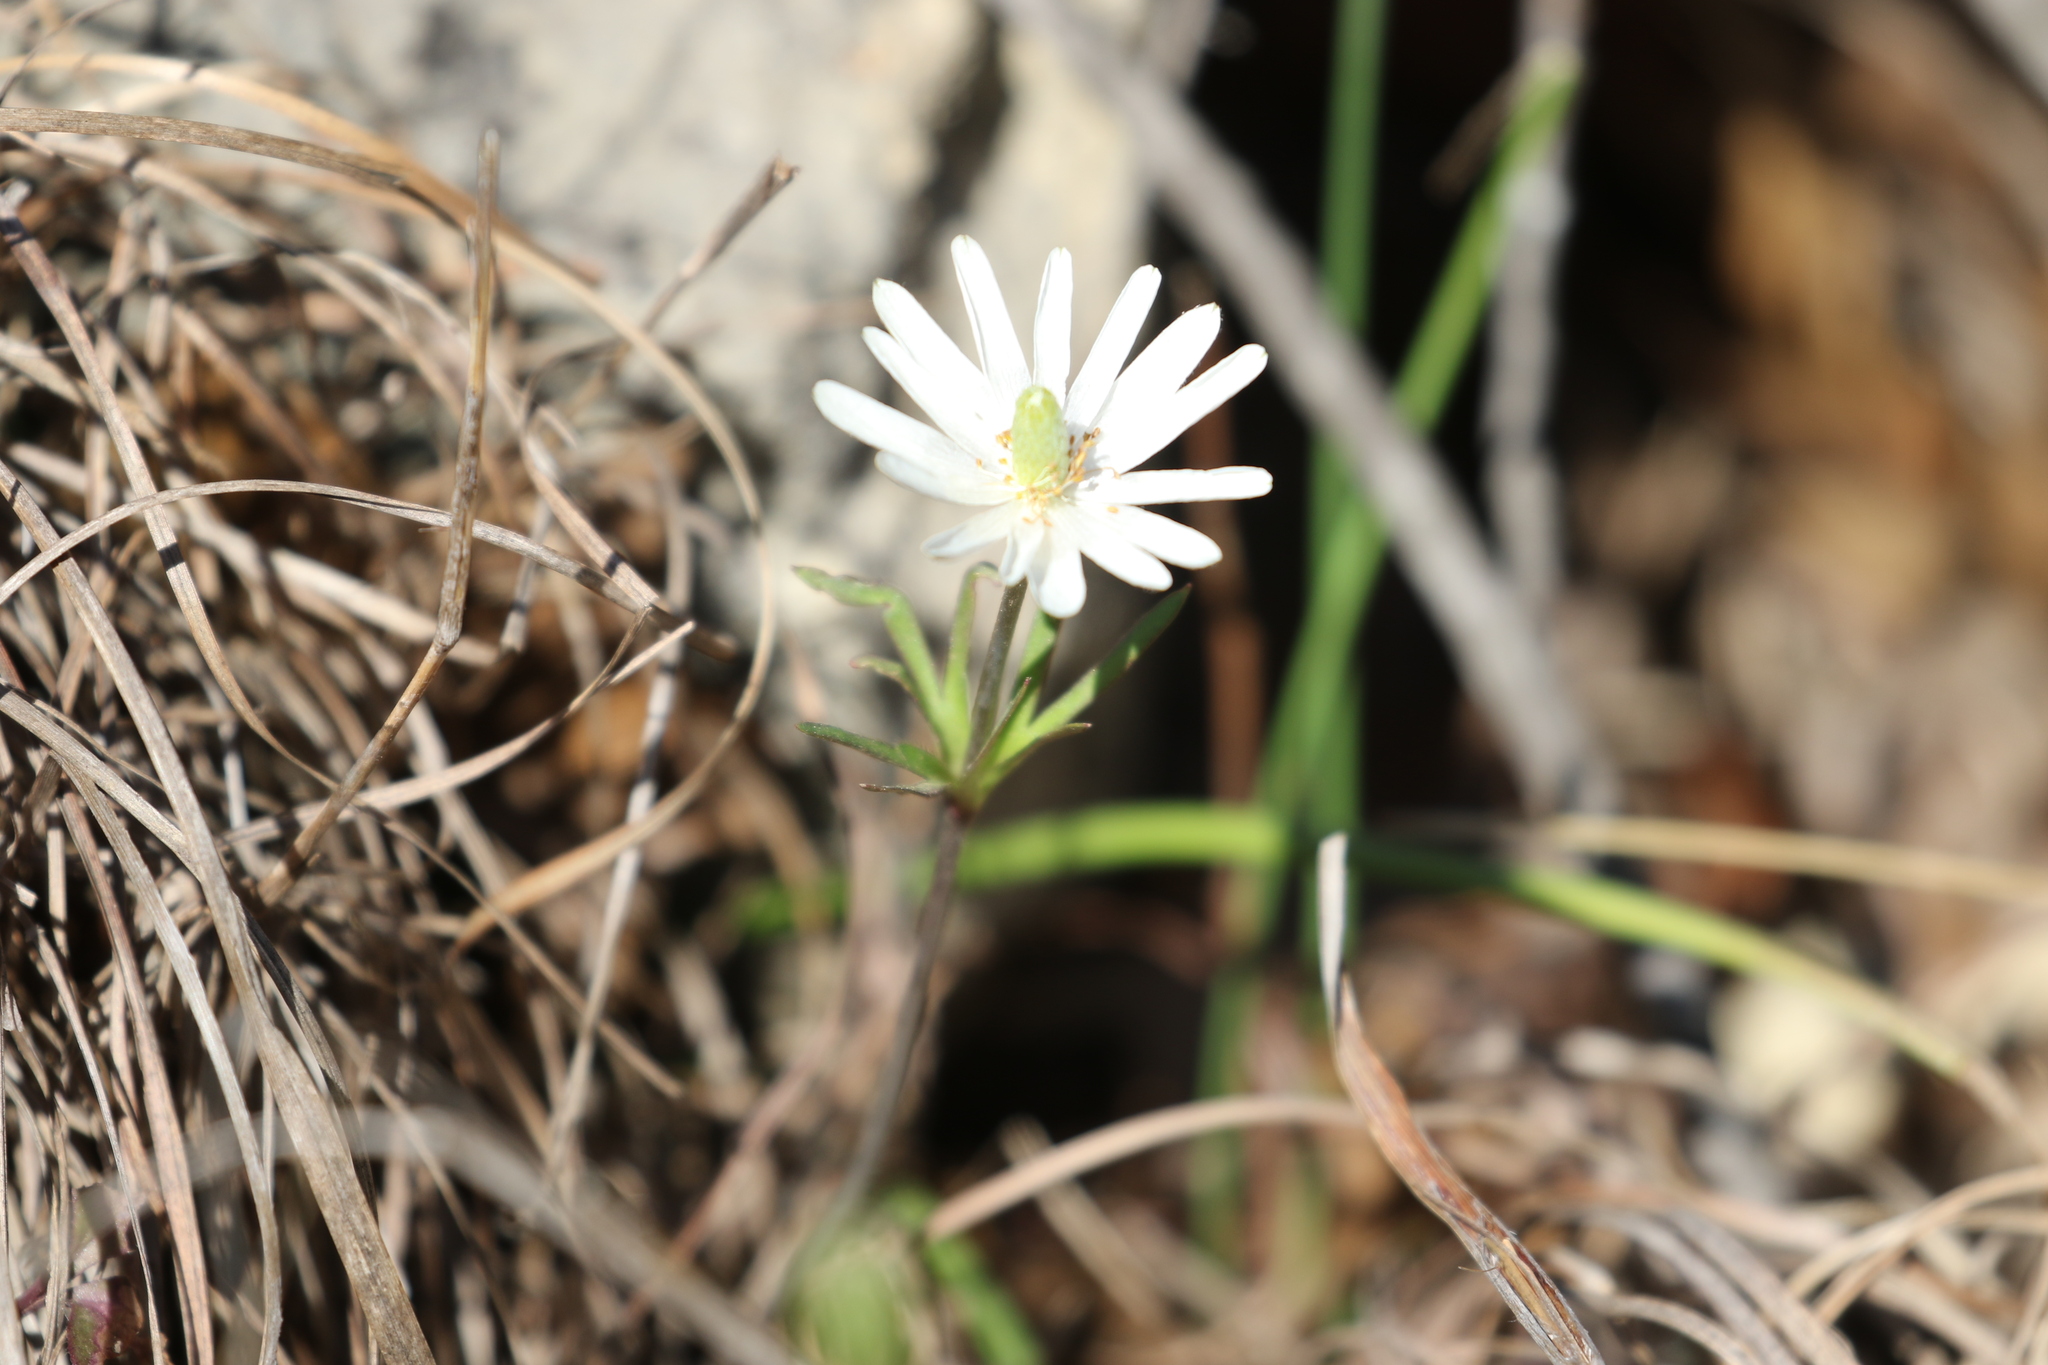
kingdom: Plantae
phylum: Tracheophyta
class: Magnoliopsida
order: Ranunculales
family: Ranunculaceae
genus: Anemone
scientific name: Anemone berlandieri
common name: Ten-petal anemone
